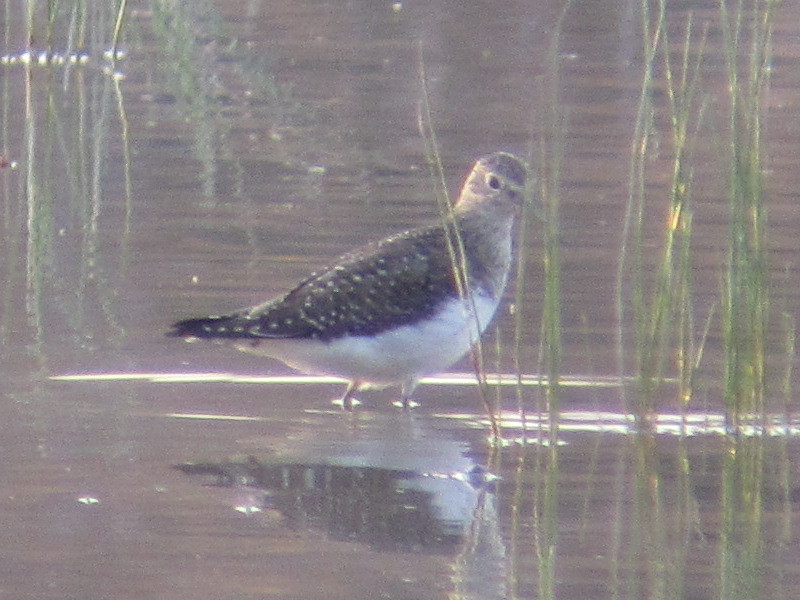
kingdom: Animalia
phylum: Chordata
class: Aves
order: Charadriiformes
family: Scolopacidae
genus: Tringa
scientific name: Tringa solitaria
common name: Solitary sandpiper
